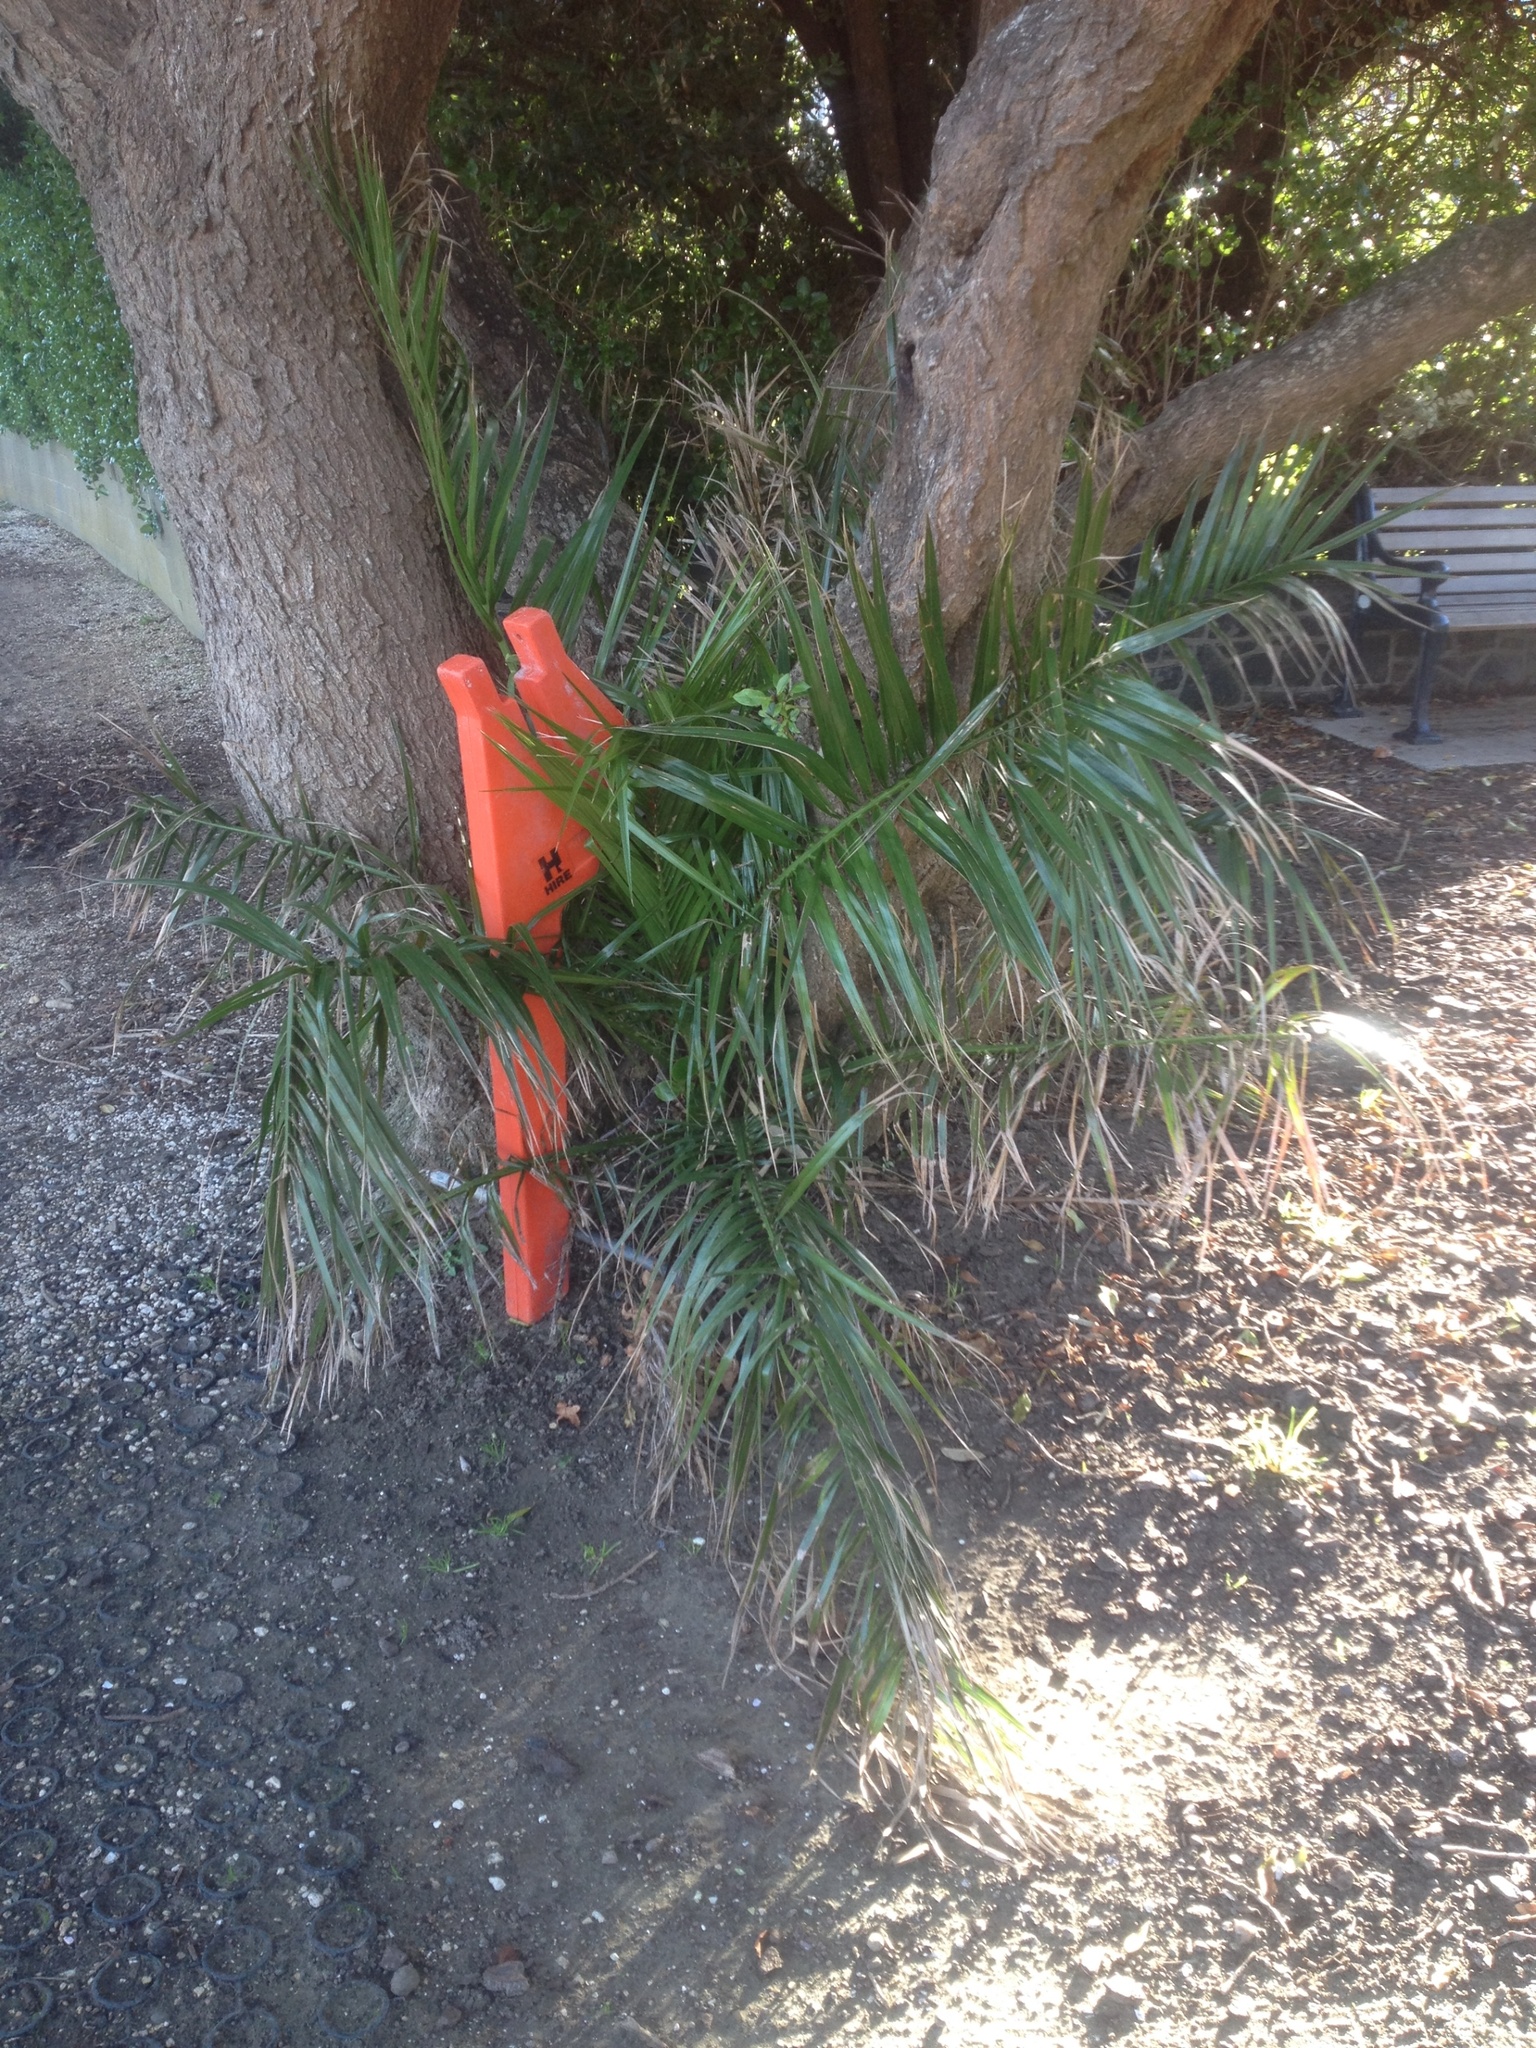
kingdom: Plantae
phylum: Tracheophyta
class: Liliopsida
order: Arecales
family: Arecaceae
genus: Phoenix
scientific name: Phoenix canariensis
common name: Canary island date palm
